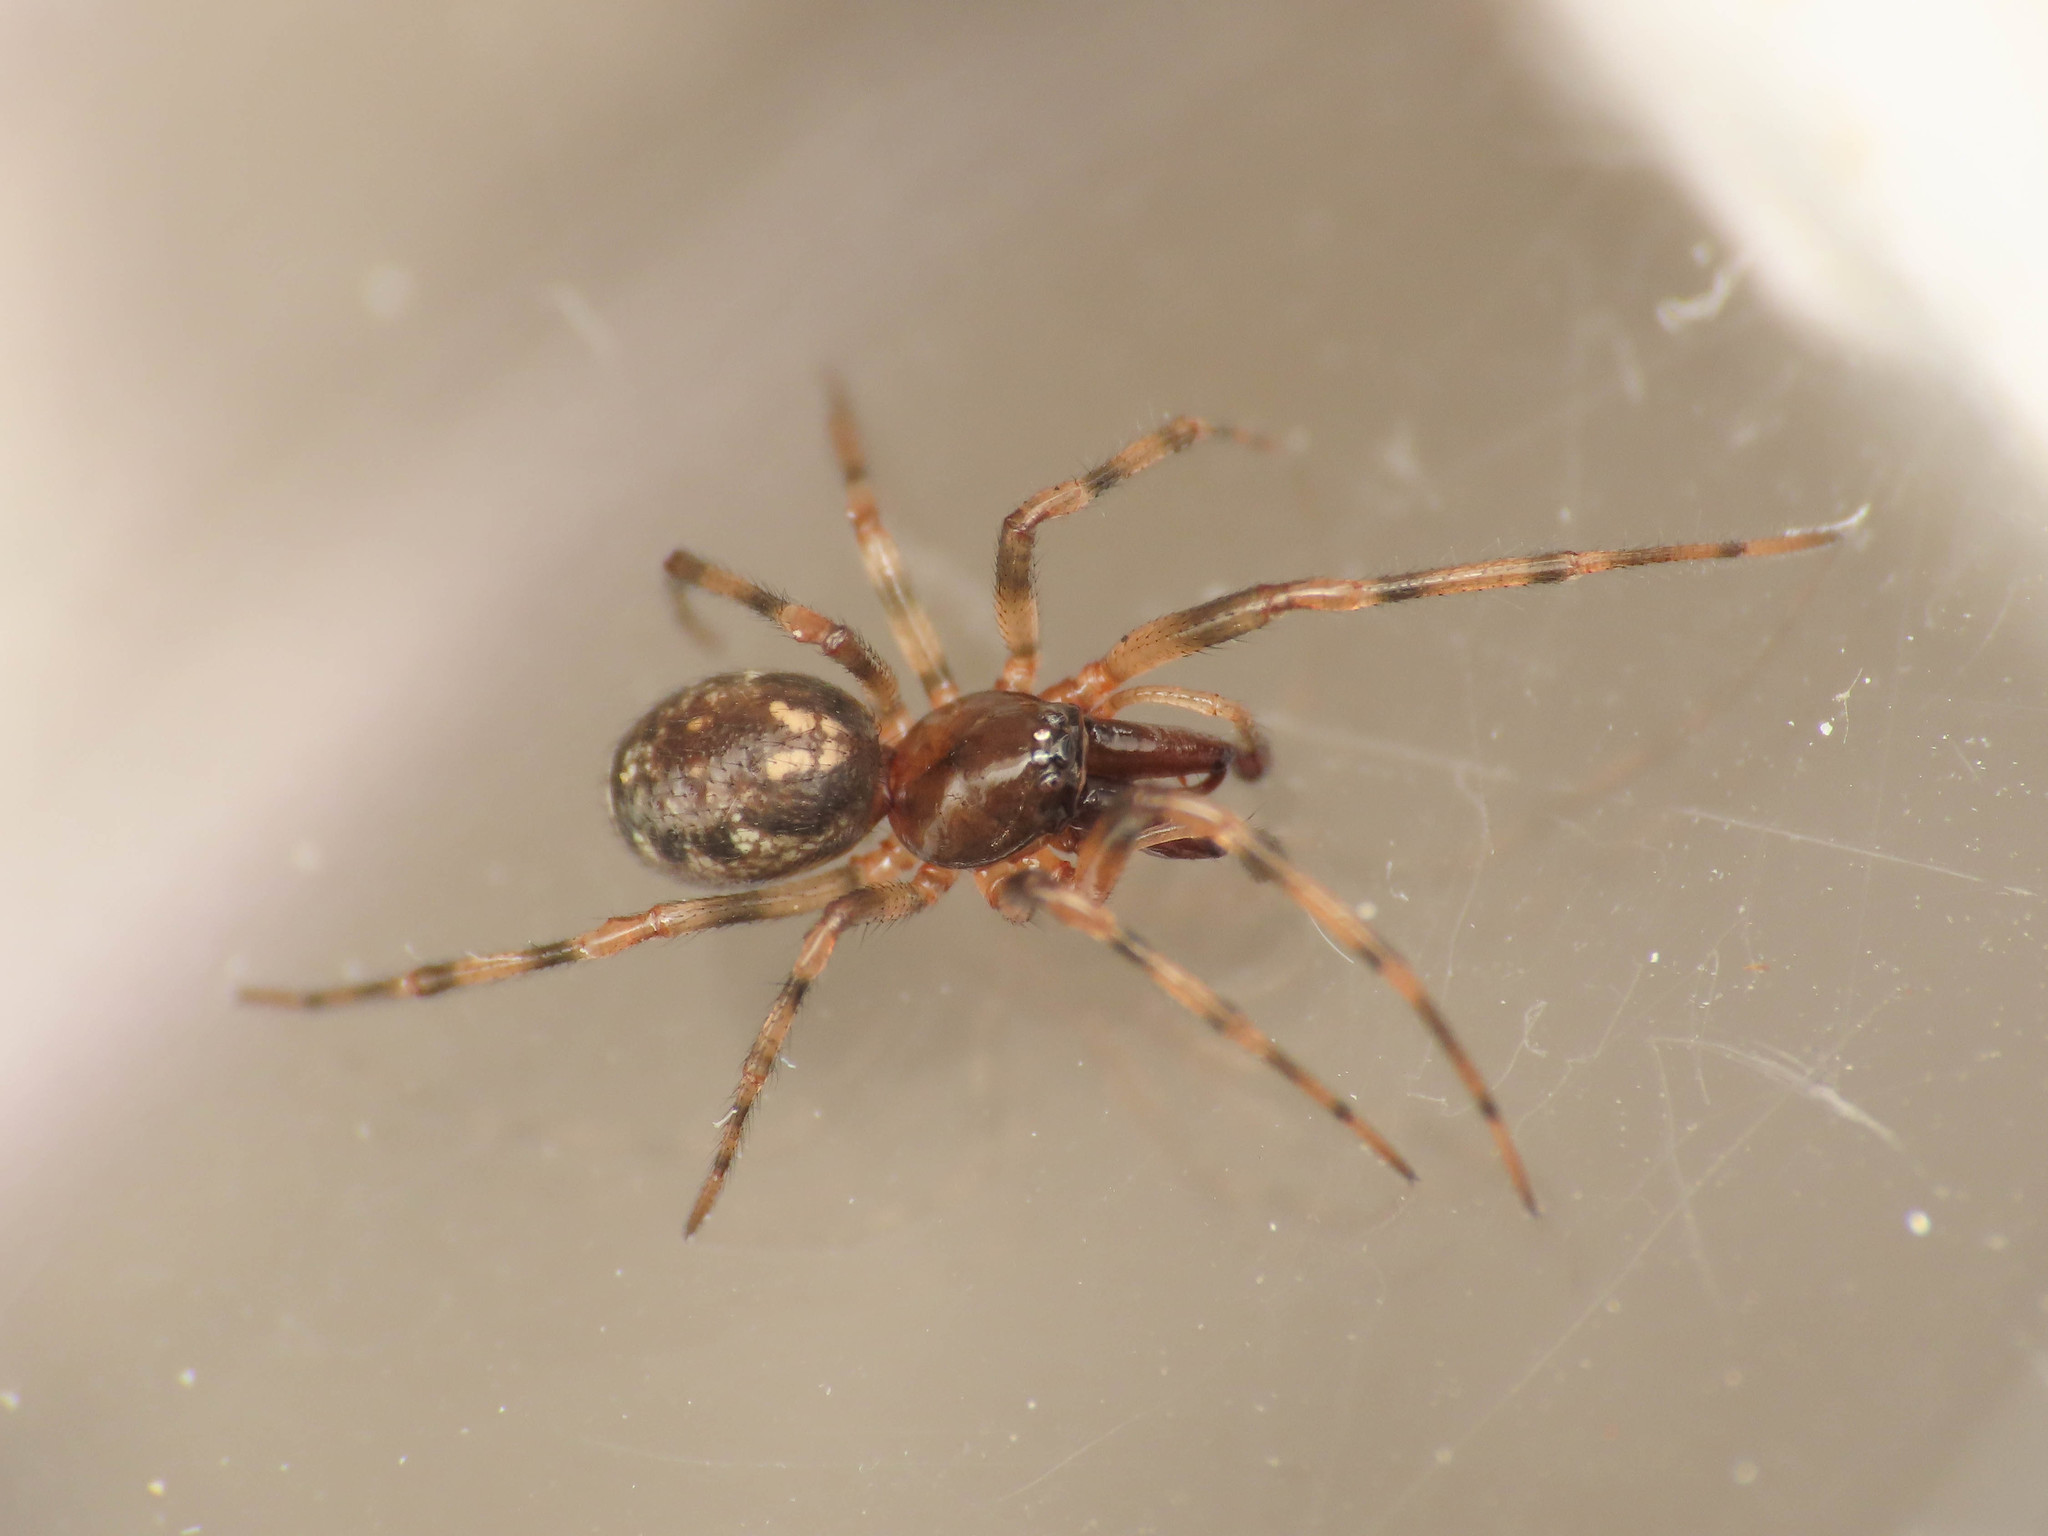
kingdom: Animalia
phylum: Arthropoda
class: Arachnida
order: Araneae
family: Theridiidae
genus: Enoplognatha
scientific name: Enoplognatha mandibularis
